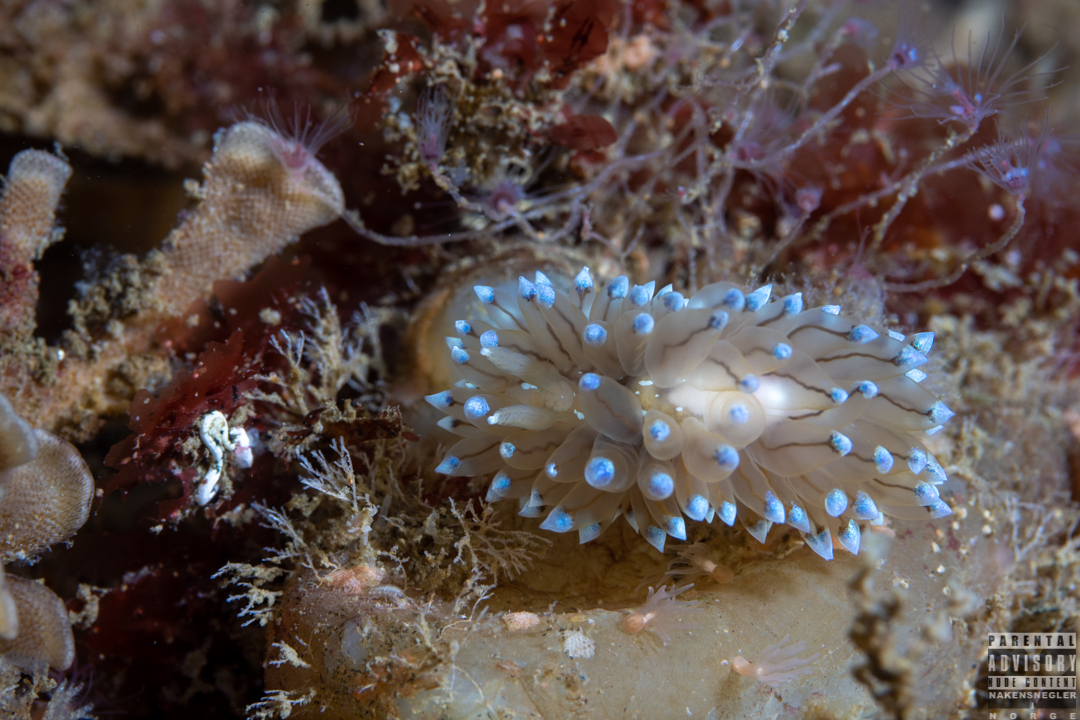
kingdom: Animalia
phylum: Mollusca
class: Gastropoda
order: Nudibranchia
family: Janolidae
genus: Antiopella
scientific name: Antiopella cristata
